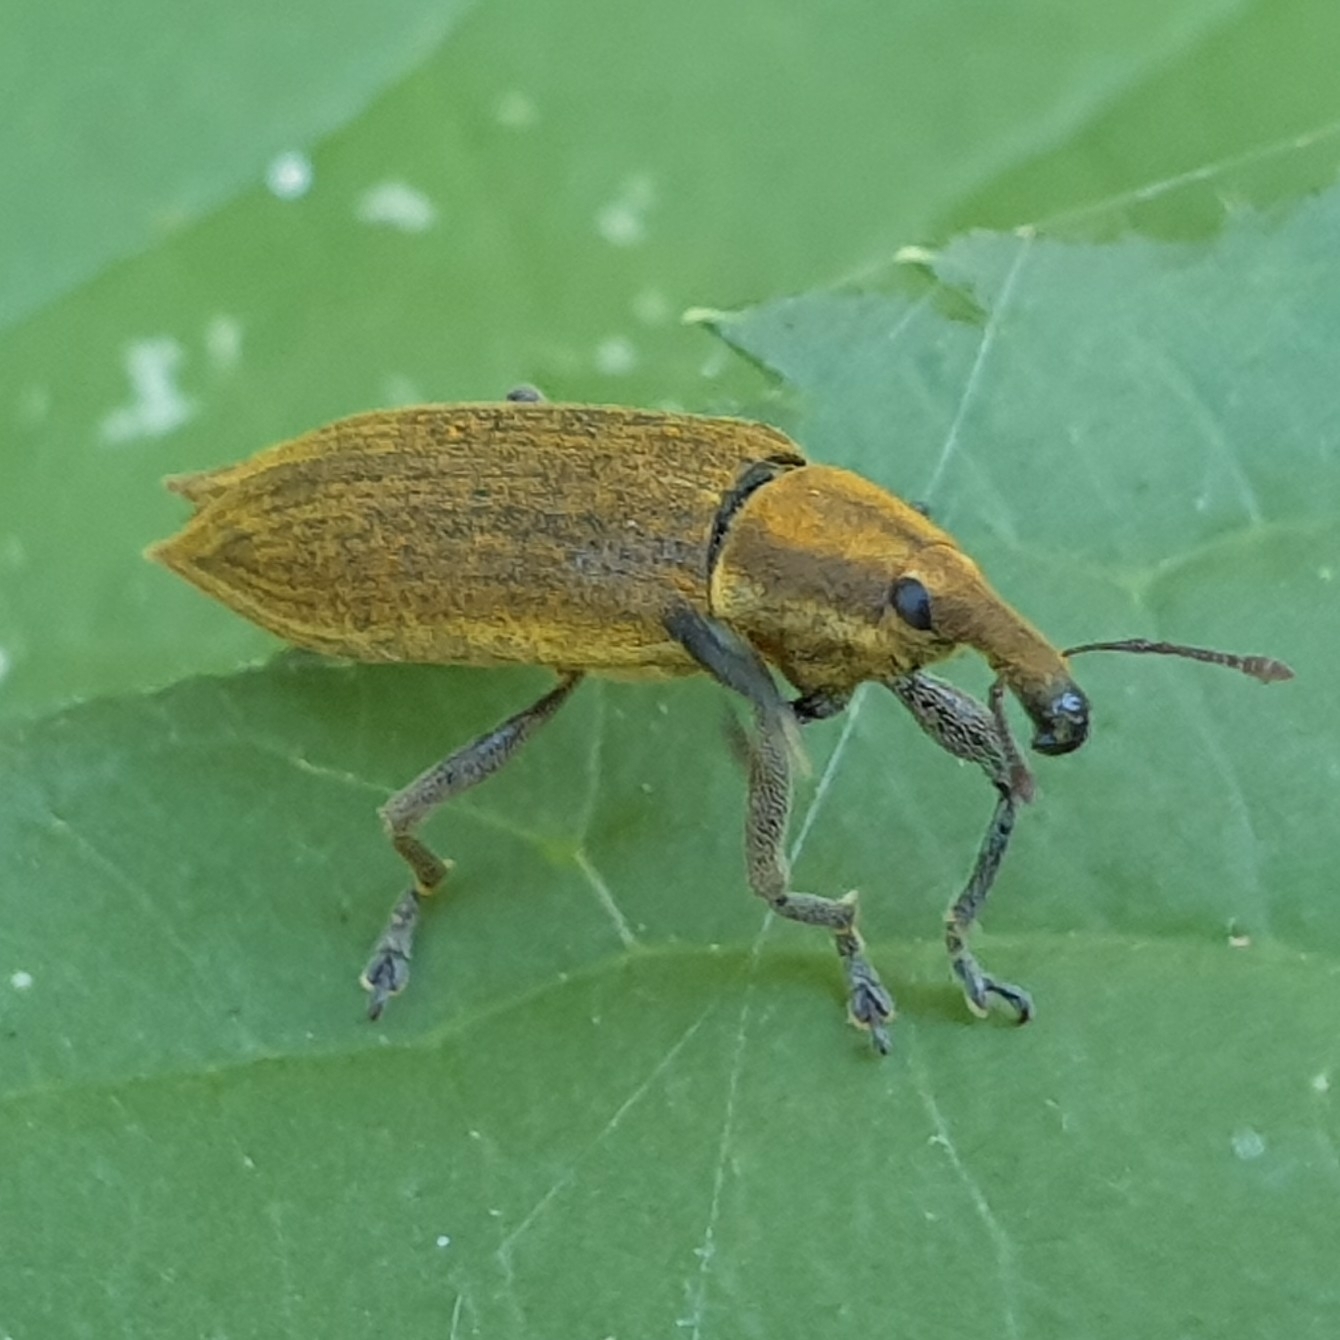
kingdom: Animalia
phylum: Arthropoda
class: Insecta
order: Coleoptera
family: Curculionidae
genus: Lixus
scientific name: Lixus iridis
